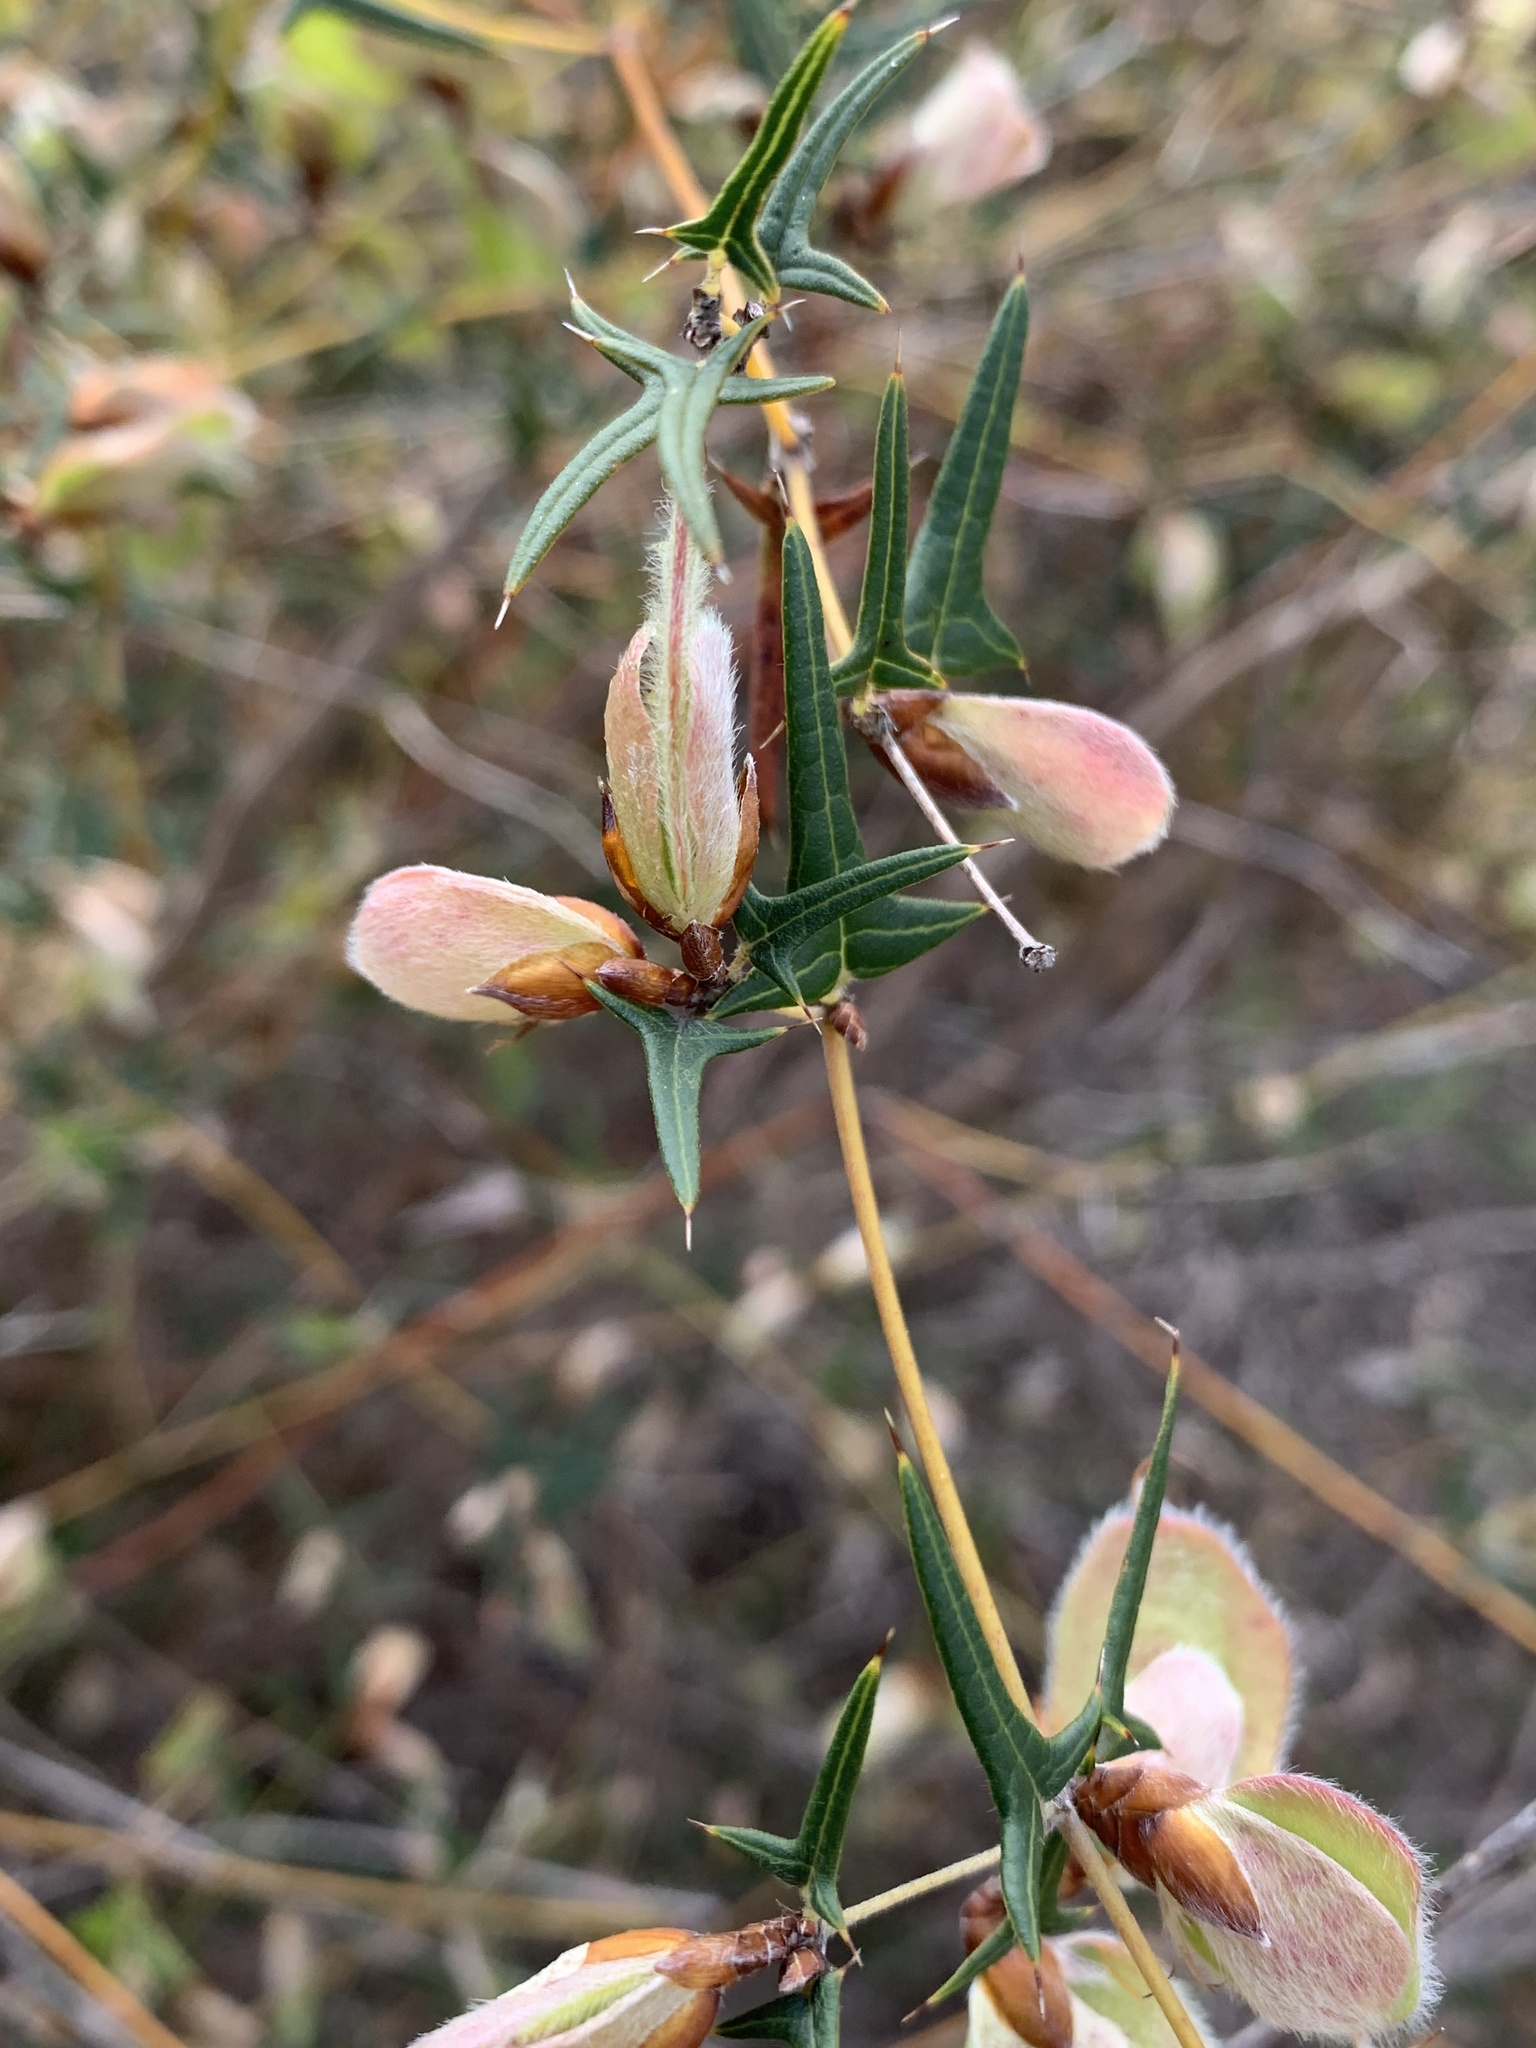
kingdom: Plantae
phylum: Tracheophyta
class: Magnoliopsida
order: Fabales
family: Fabaceae
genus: Platylobium
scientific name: Platylobium obtusangulum
